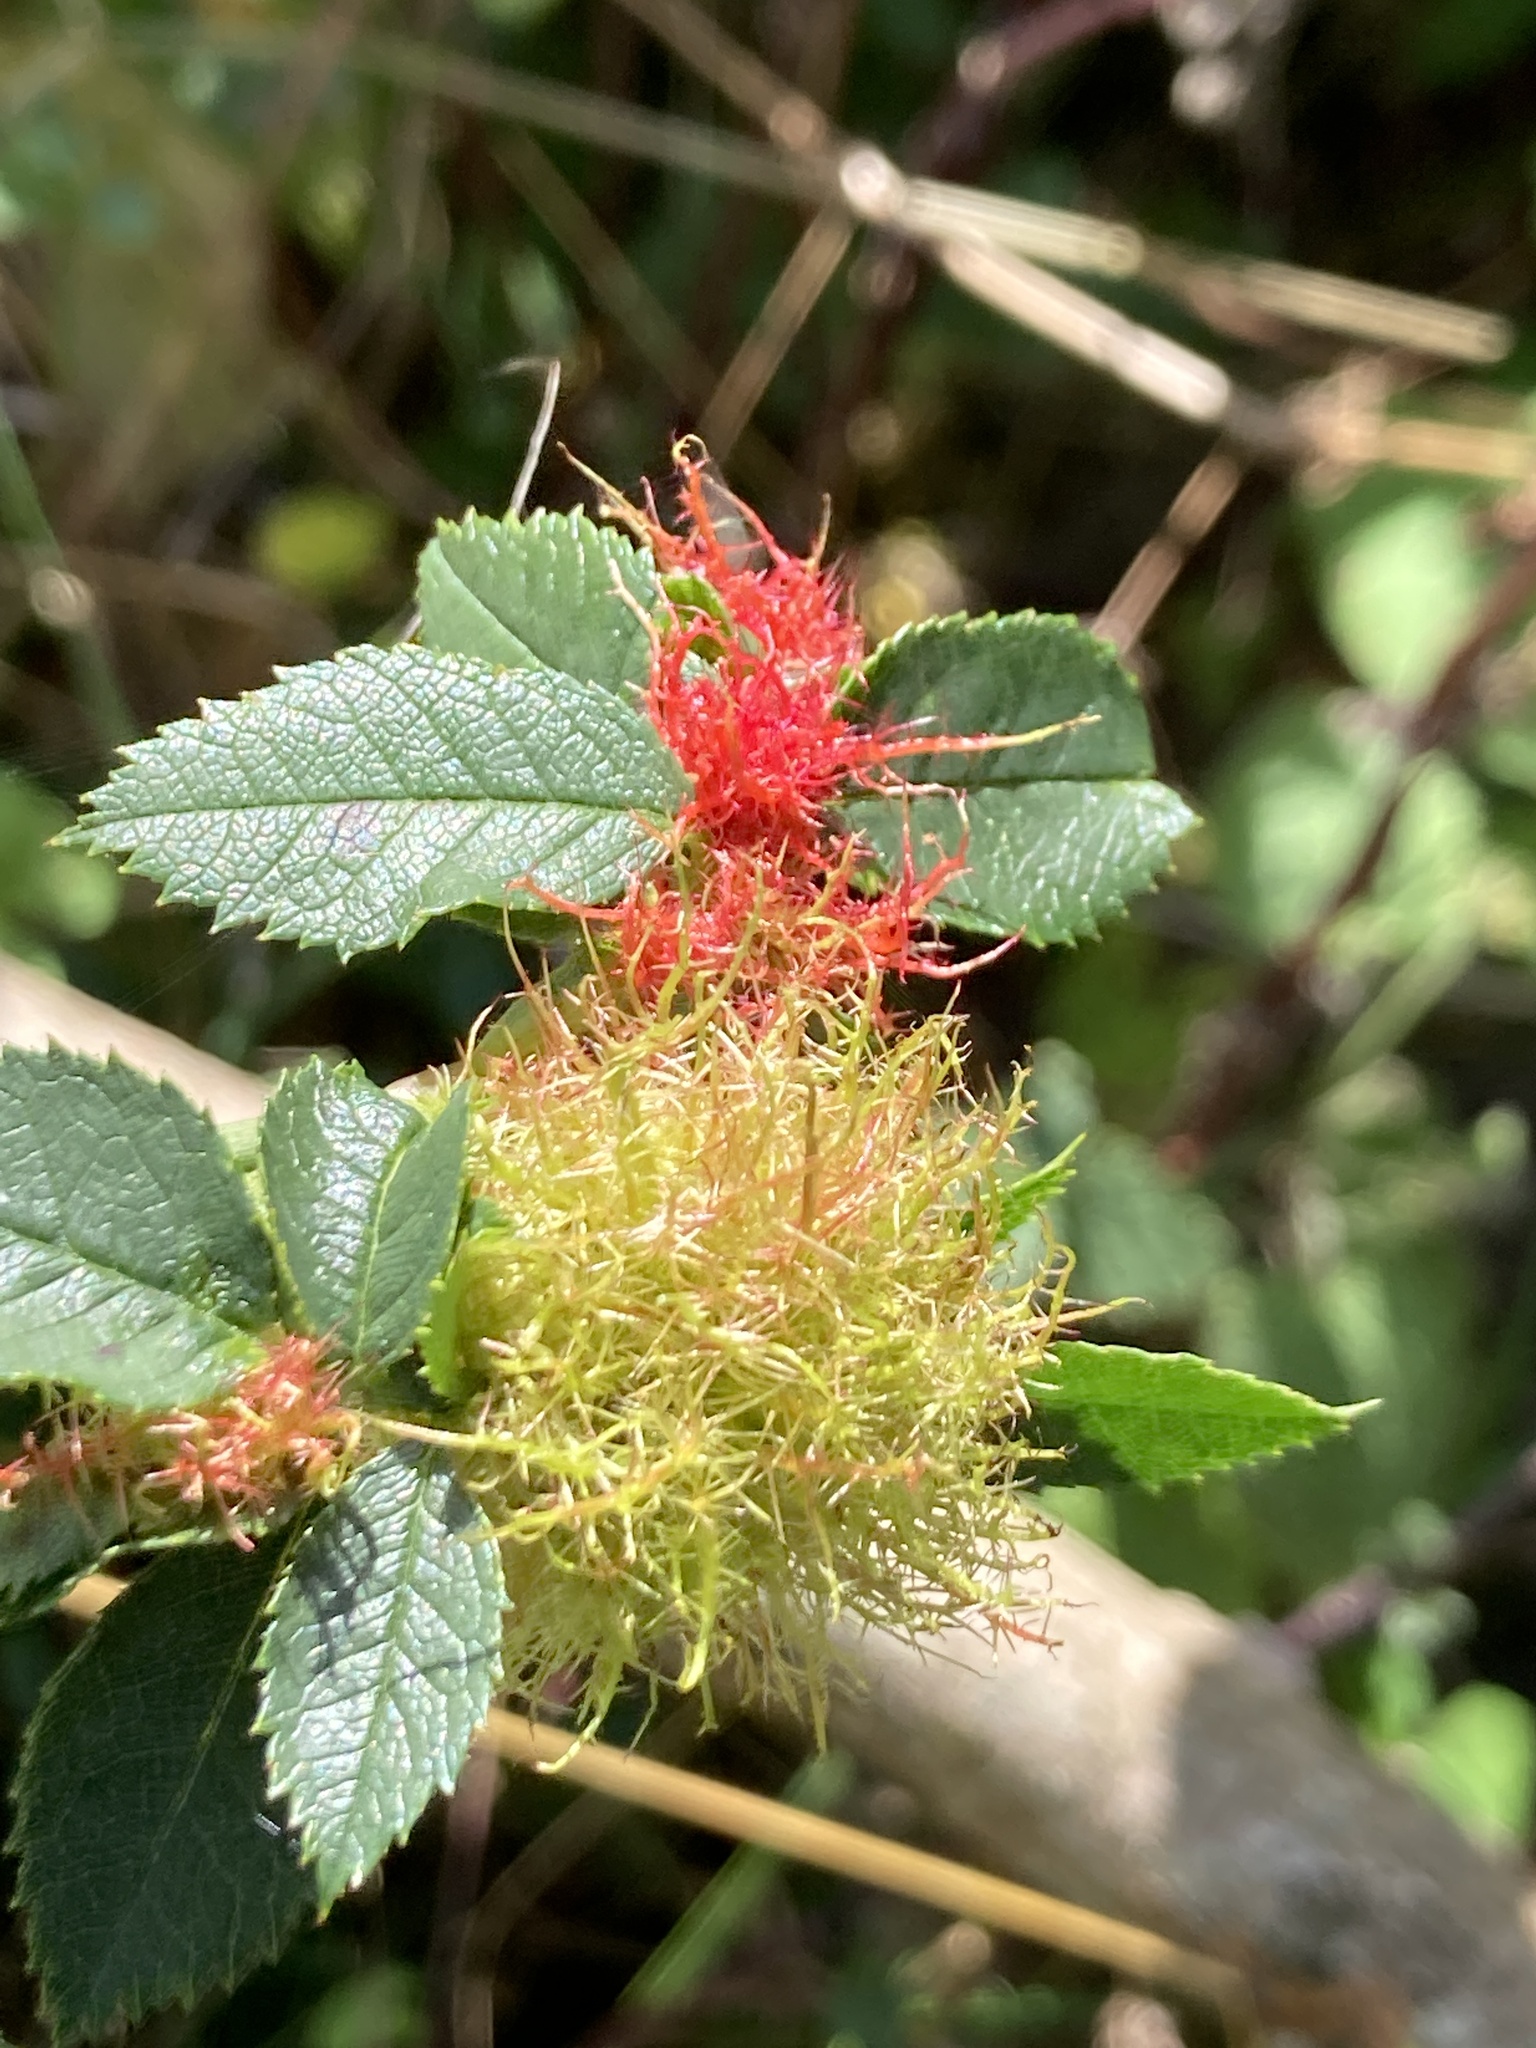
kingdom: Animalia
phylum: Arthropoda
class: Insecta
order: Hymenoptera
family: Cynipidae
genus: Diplolepis
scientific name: Diplolepis rosae
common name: Bedeguar gall
